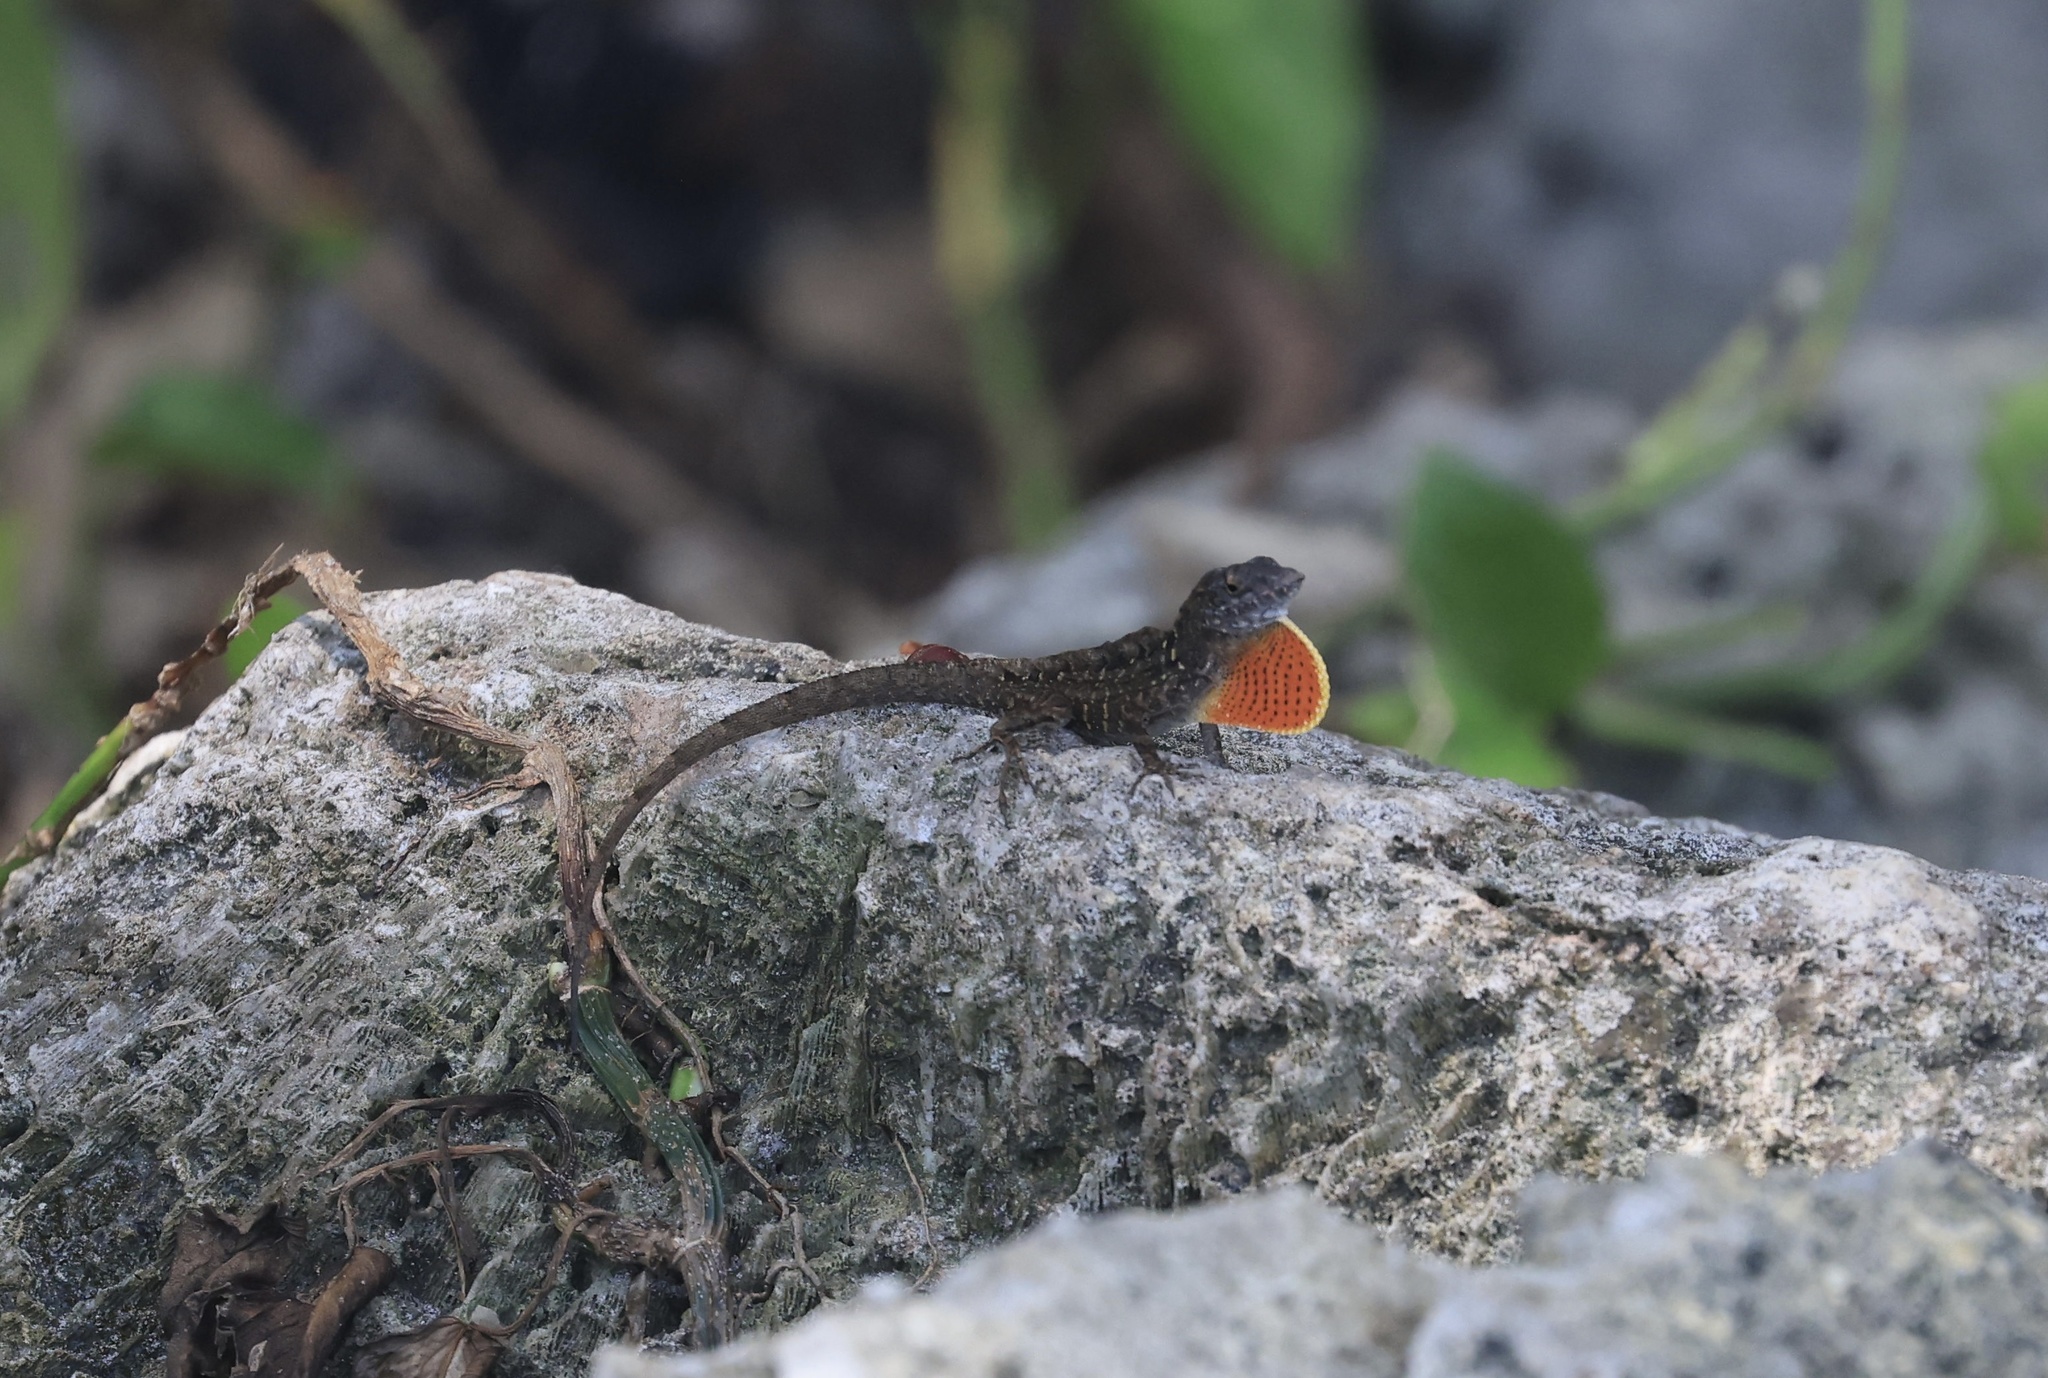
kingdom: Animalia
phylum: Chordata
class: Squamata
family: Dactyloidae
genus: Anolis
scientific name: Anolis sagrei
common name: Brown anole
